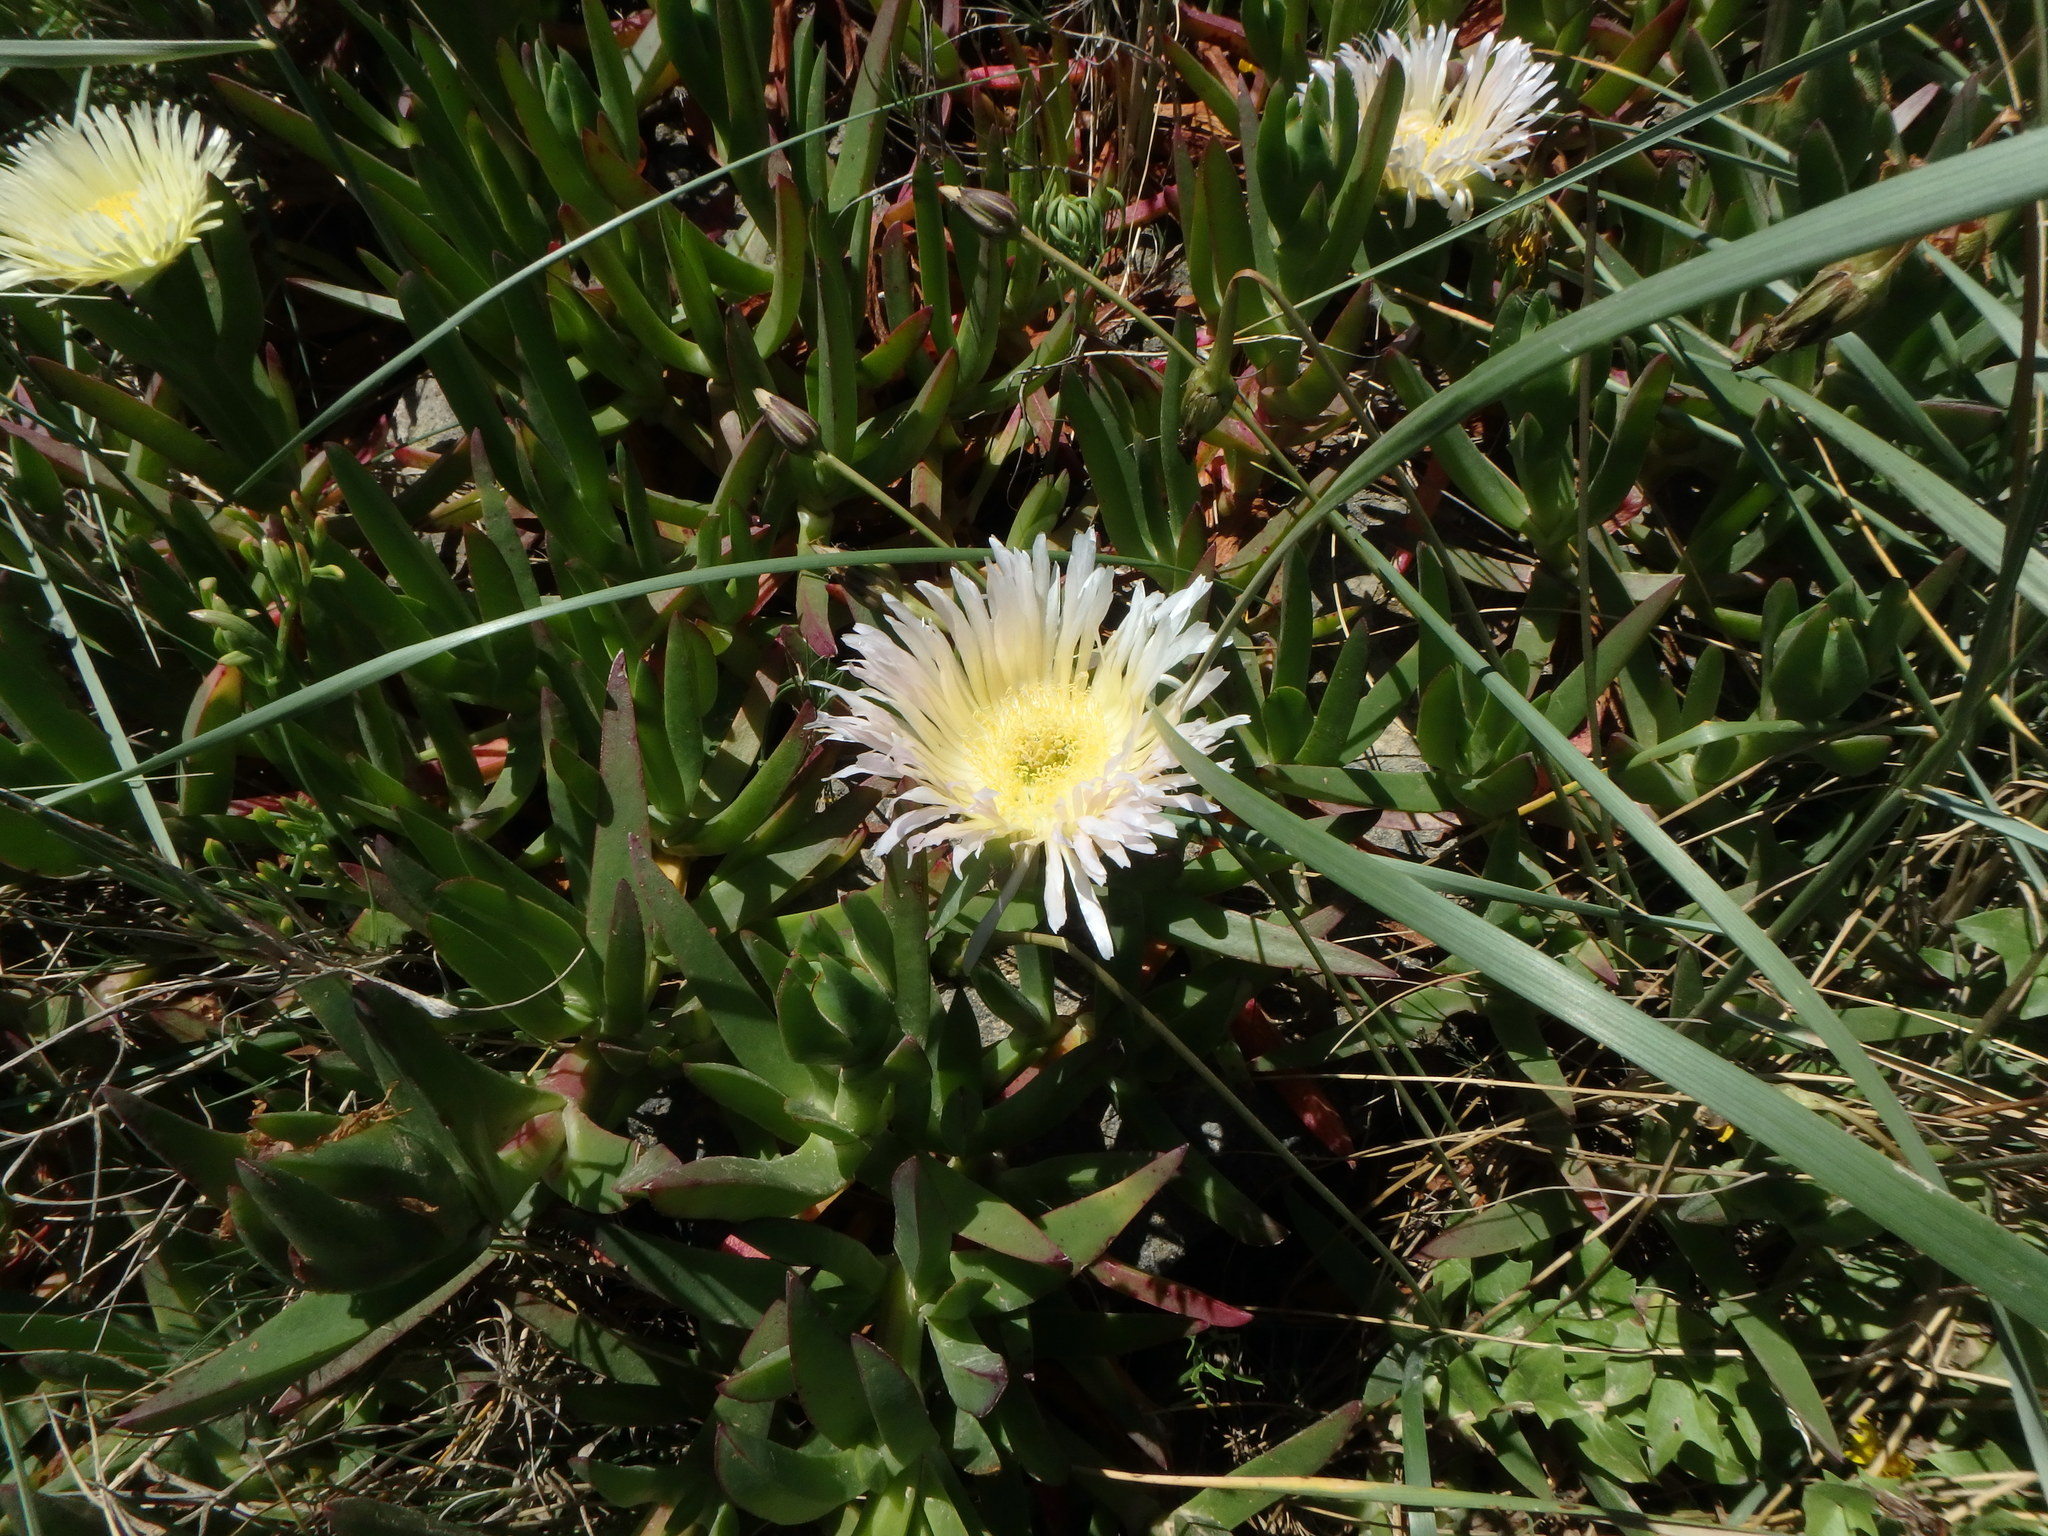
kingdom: Plantae
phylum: Tracheophyta
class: Magnoliopsida
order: Caryophyllales
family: Aizoaceae
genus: Carpobrotus
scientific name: Carpobrotus edulis
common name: Hottentot-fig
